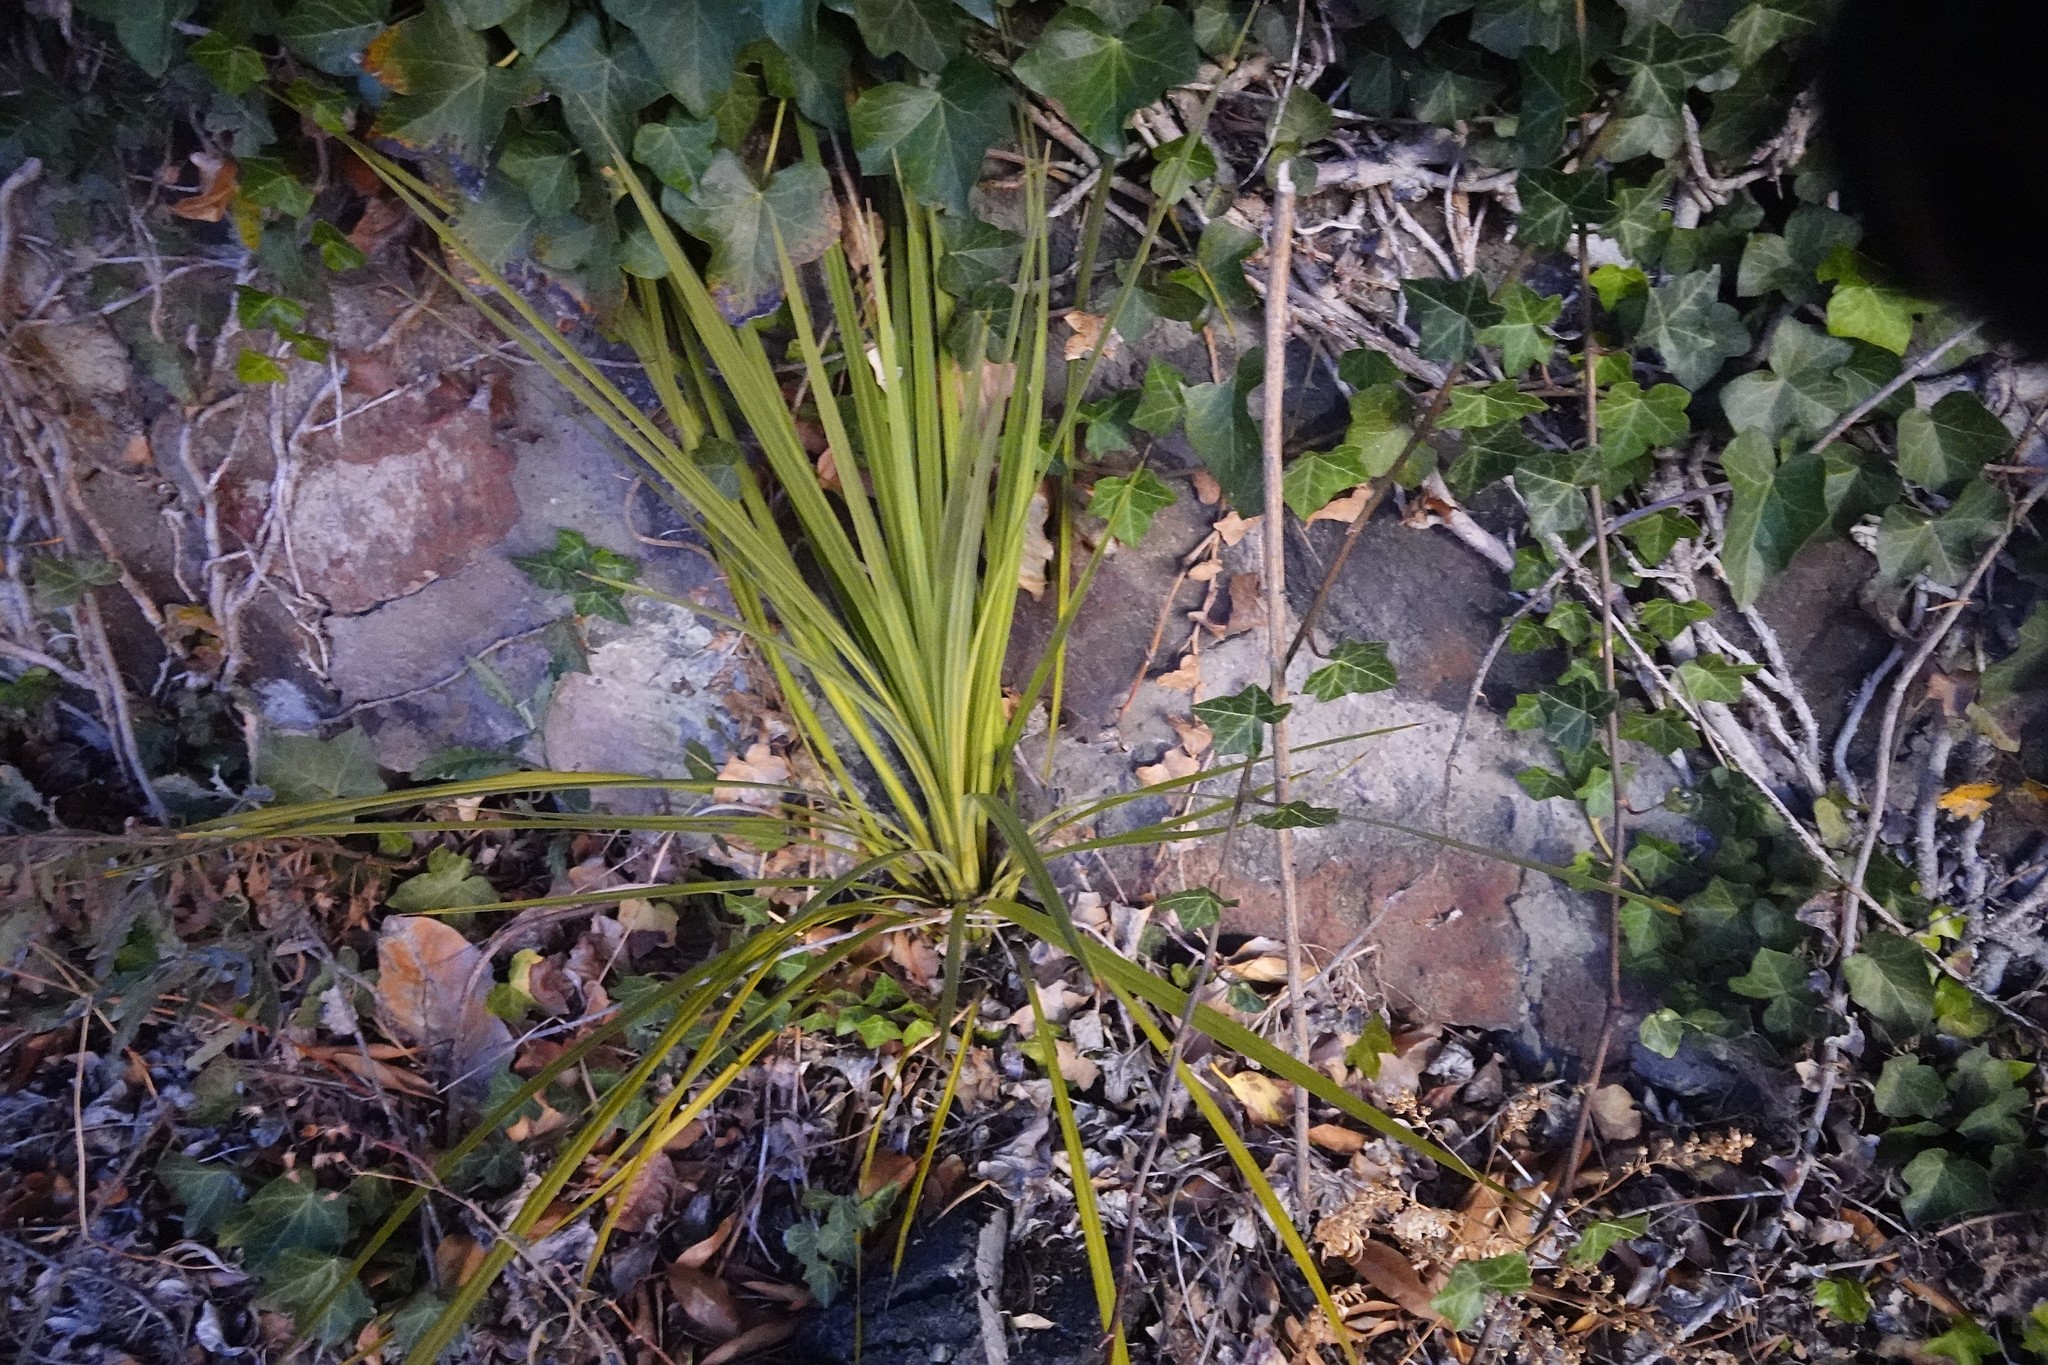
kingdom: Plantae
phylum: Tracheophyta
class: Liliopsida
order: Asparagales
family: Asparagaceae
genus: Cordyline
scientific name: Cordyline australis
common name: Cabbage-palm
